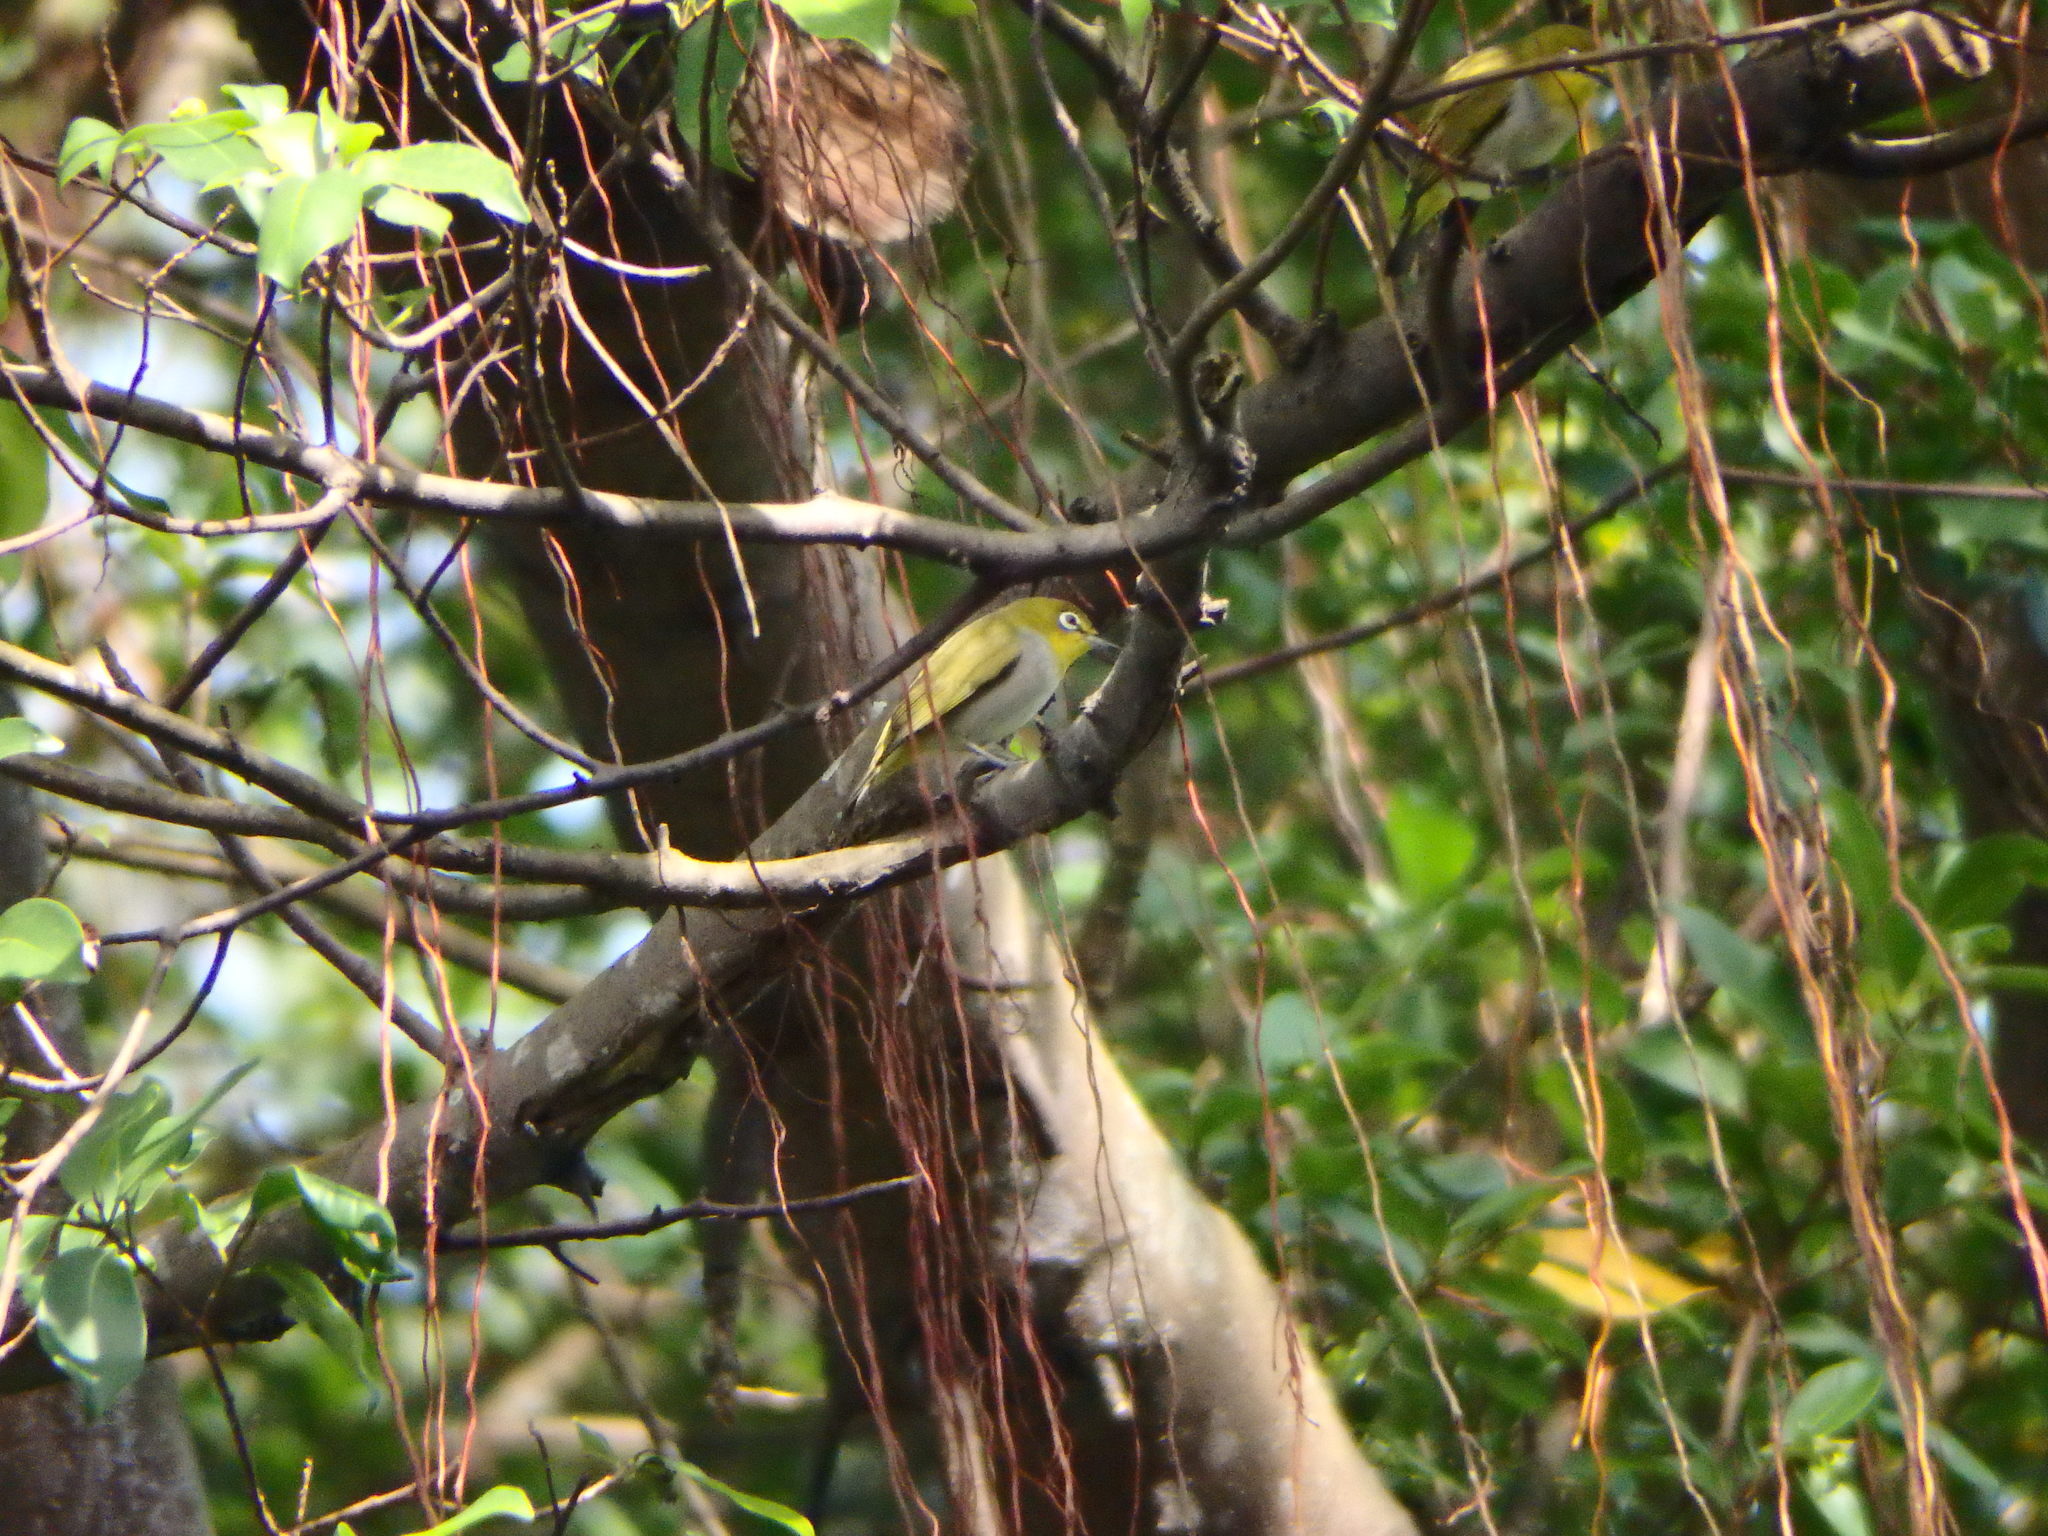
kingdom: Animalia
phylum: Chordata
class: Aves
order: Passeriformes
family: Zosteropidae
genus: Zosterops
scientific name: Zosterops simplex
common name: Swinhoe's white-eye
